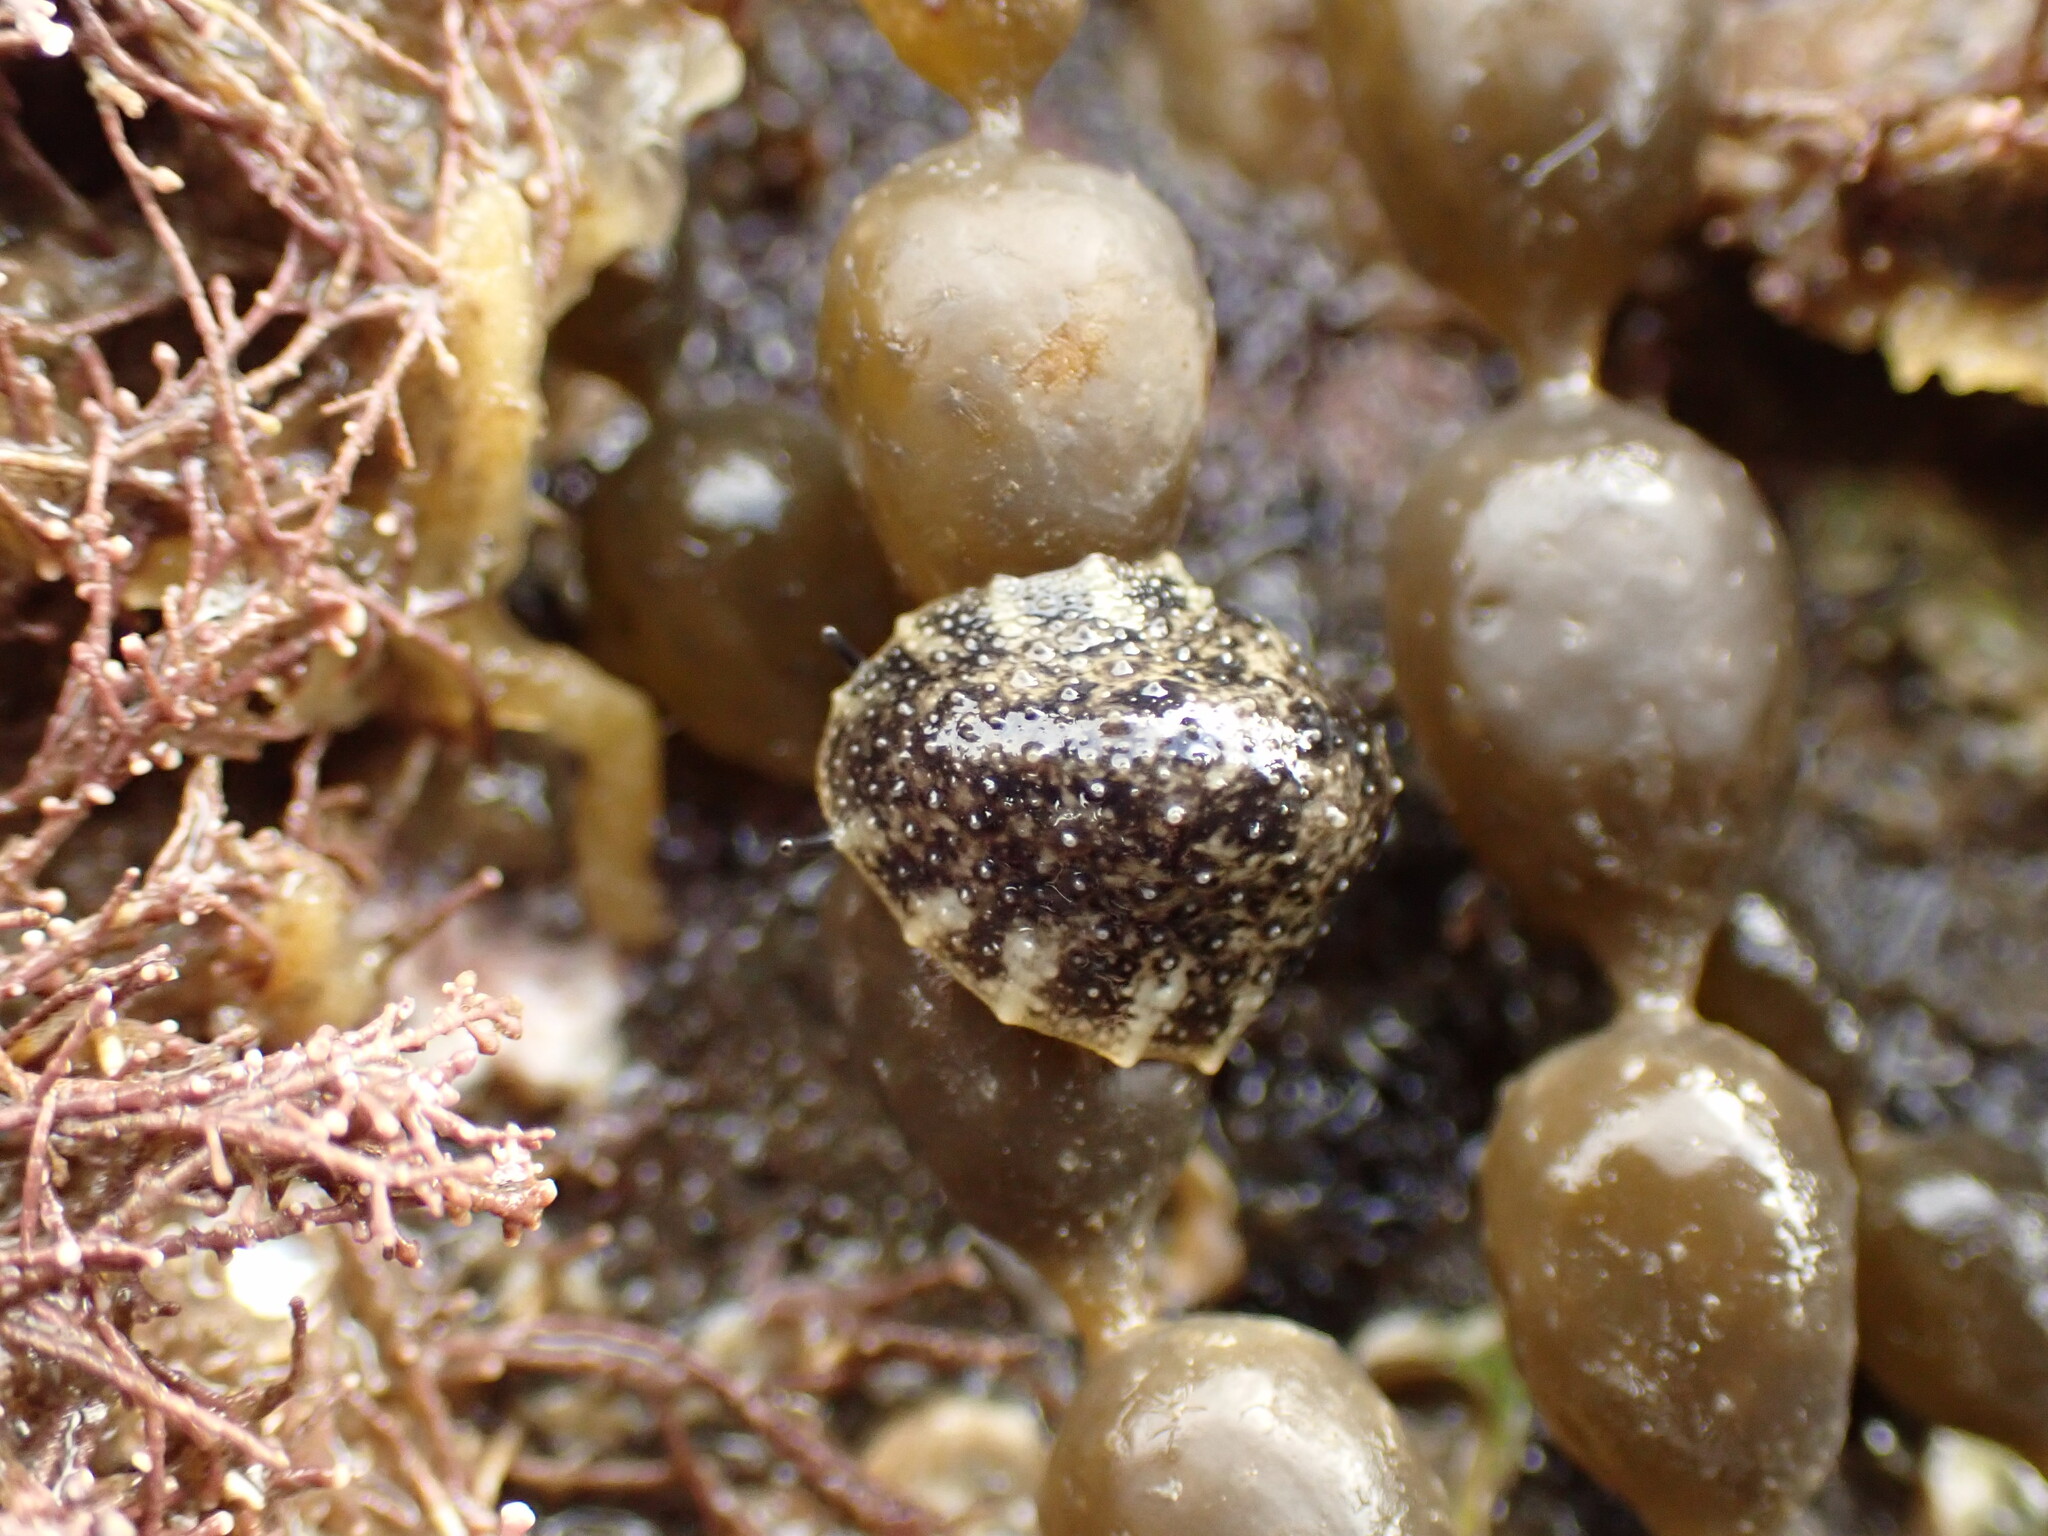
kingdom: Animalia
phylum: Mollusca
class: Gastropoda
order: Systellommatophora
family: Onchidiidae
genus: Onchidella
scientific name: Onchidella nigricans
